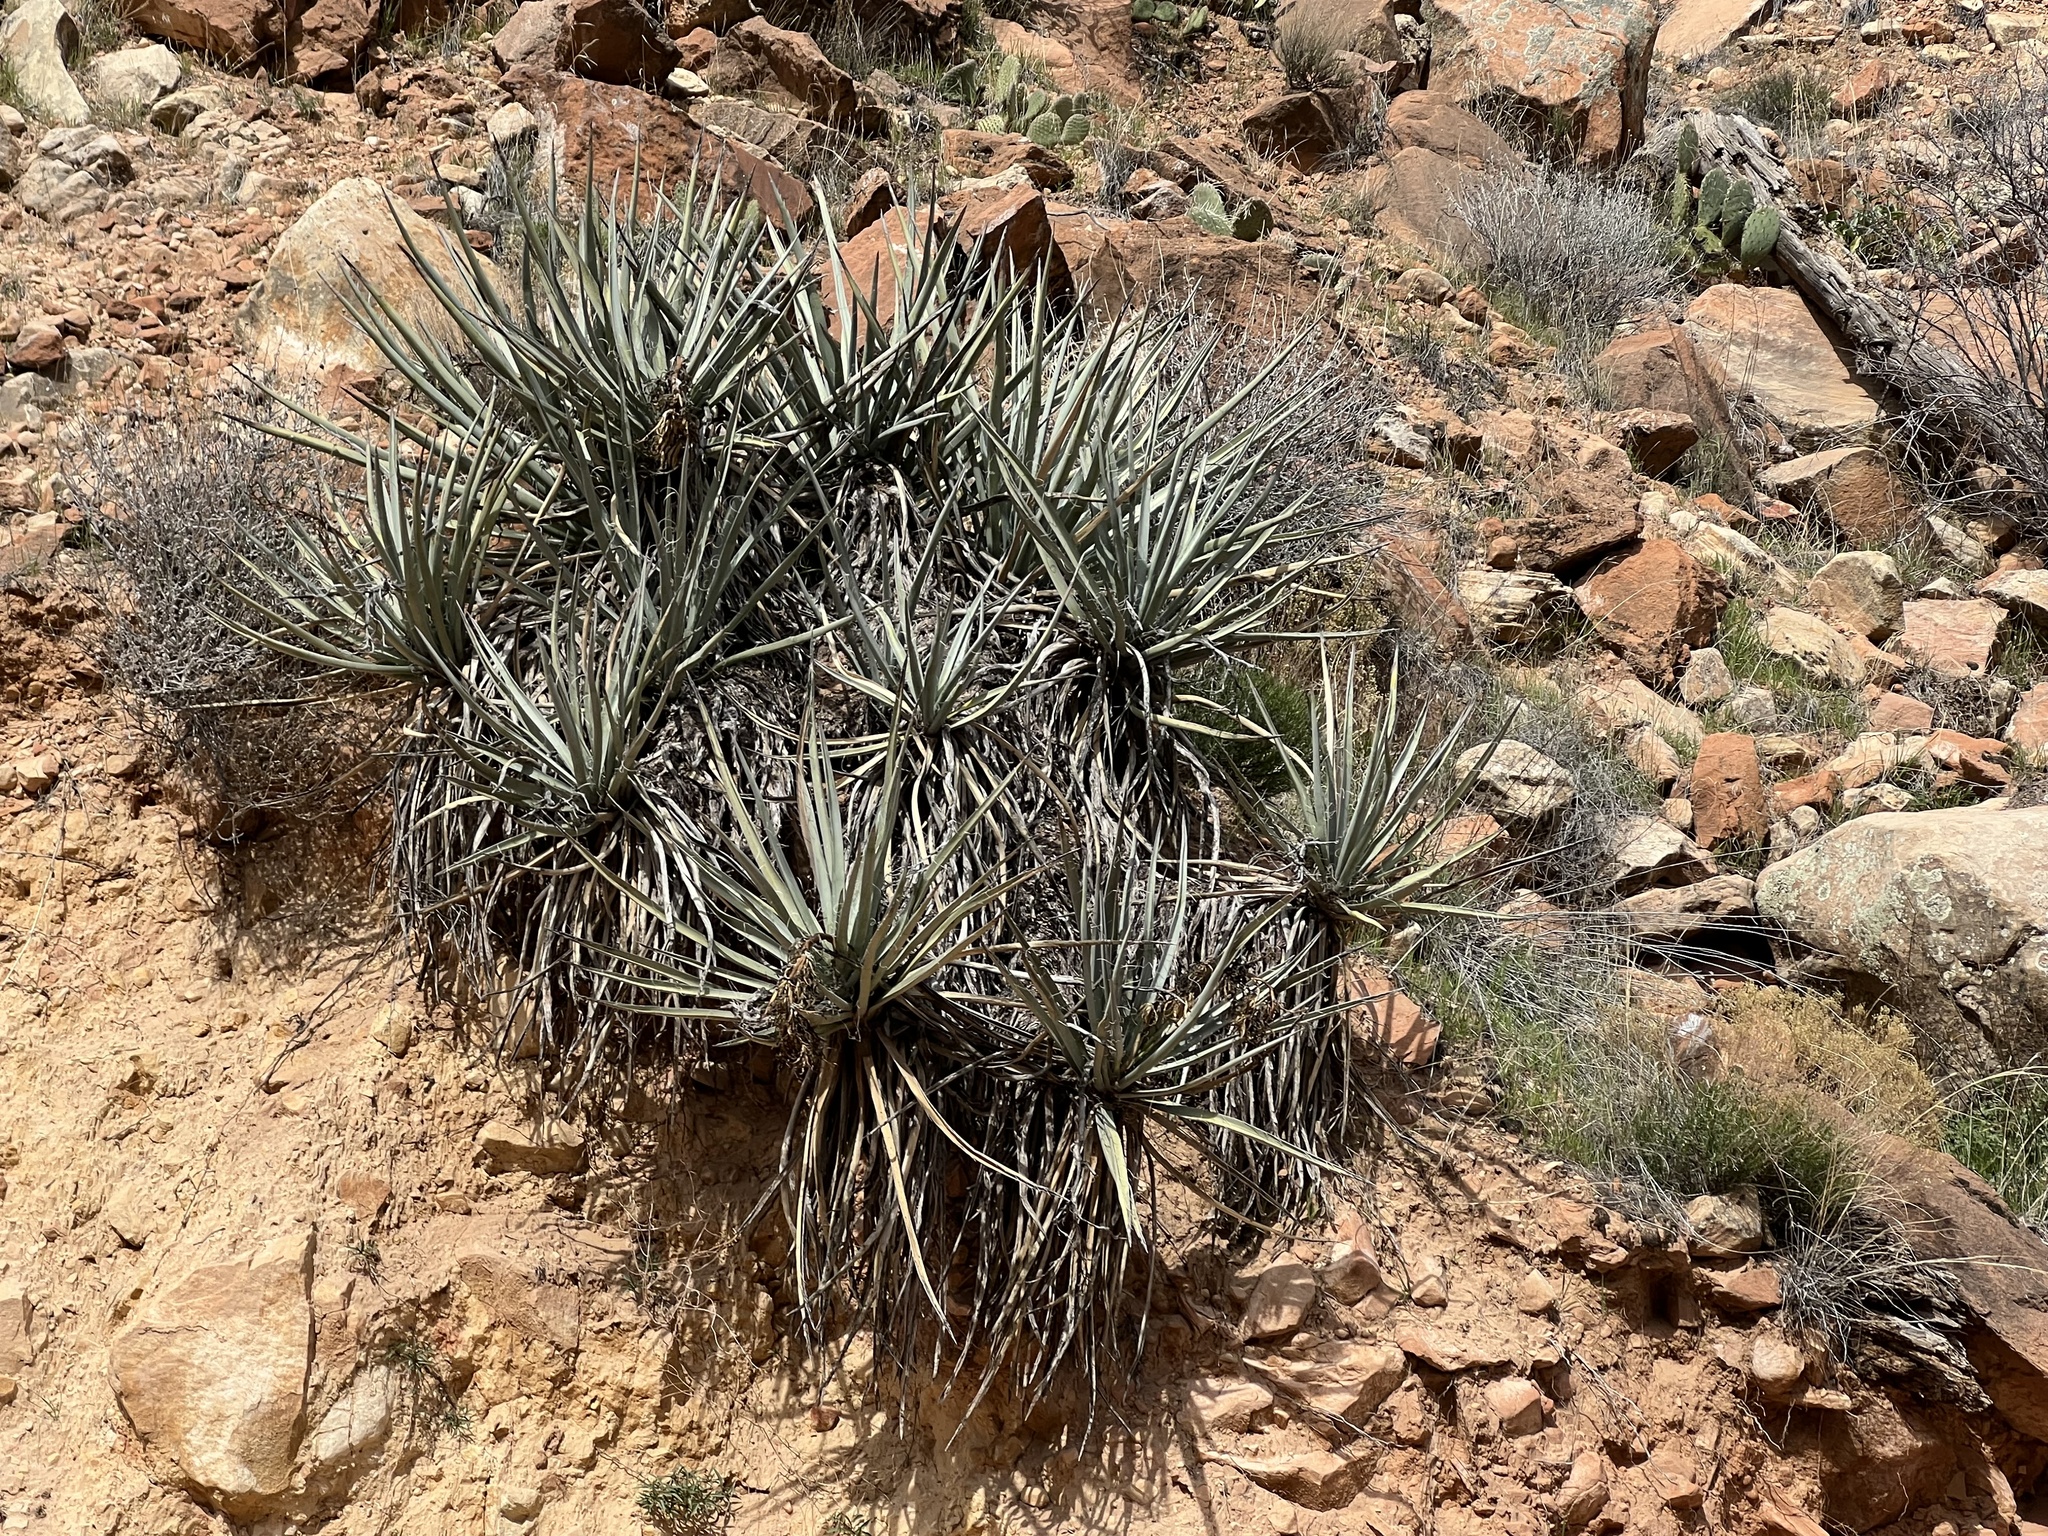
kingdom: Plantae
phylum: Tracheophyta
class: Liliopsida
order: Asparagales
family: Asparagaceae
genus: Yucca
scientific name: Yucca baccata
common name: Banana yucca
